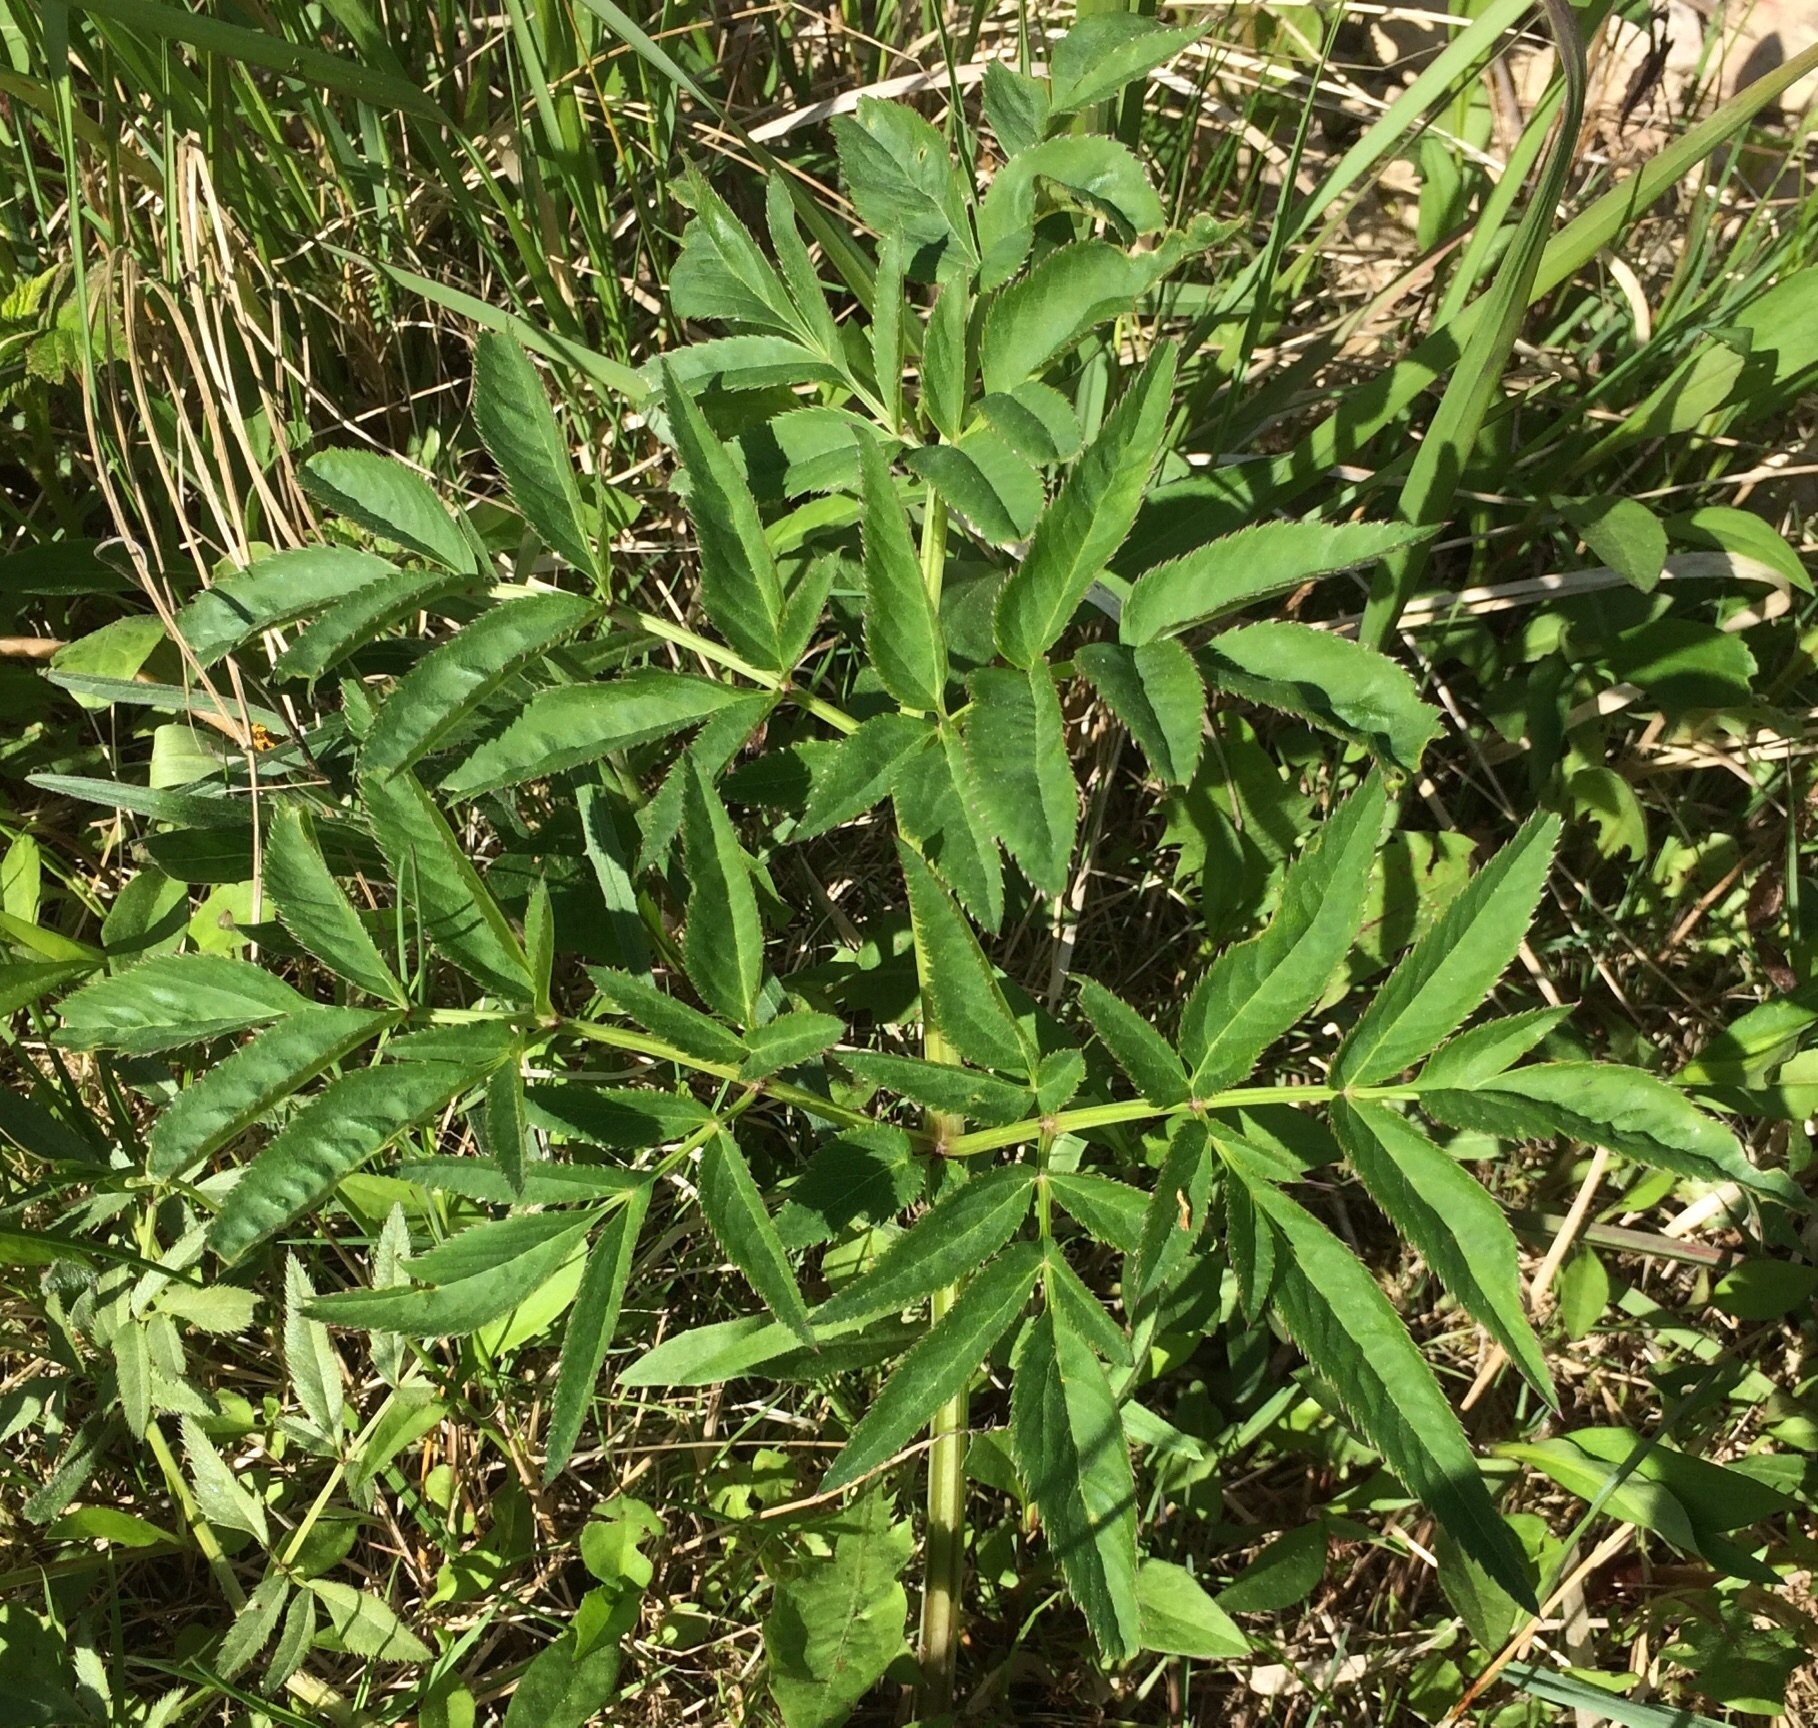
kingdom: Plantae
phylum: Tracheophyta
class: Magnoliopsida
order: Apiales
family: Apiaceae
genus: Angelica
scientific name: Angelica sylvestris
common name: Wild angelica
